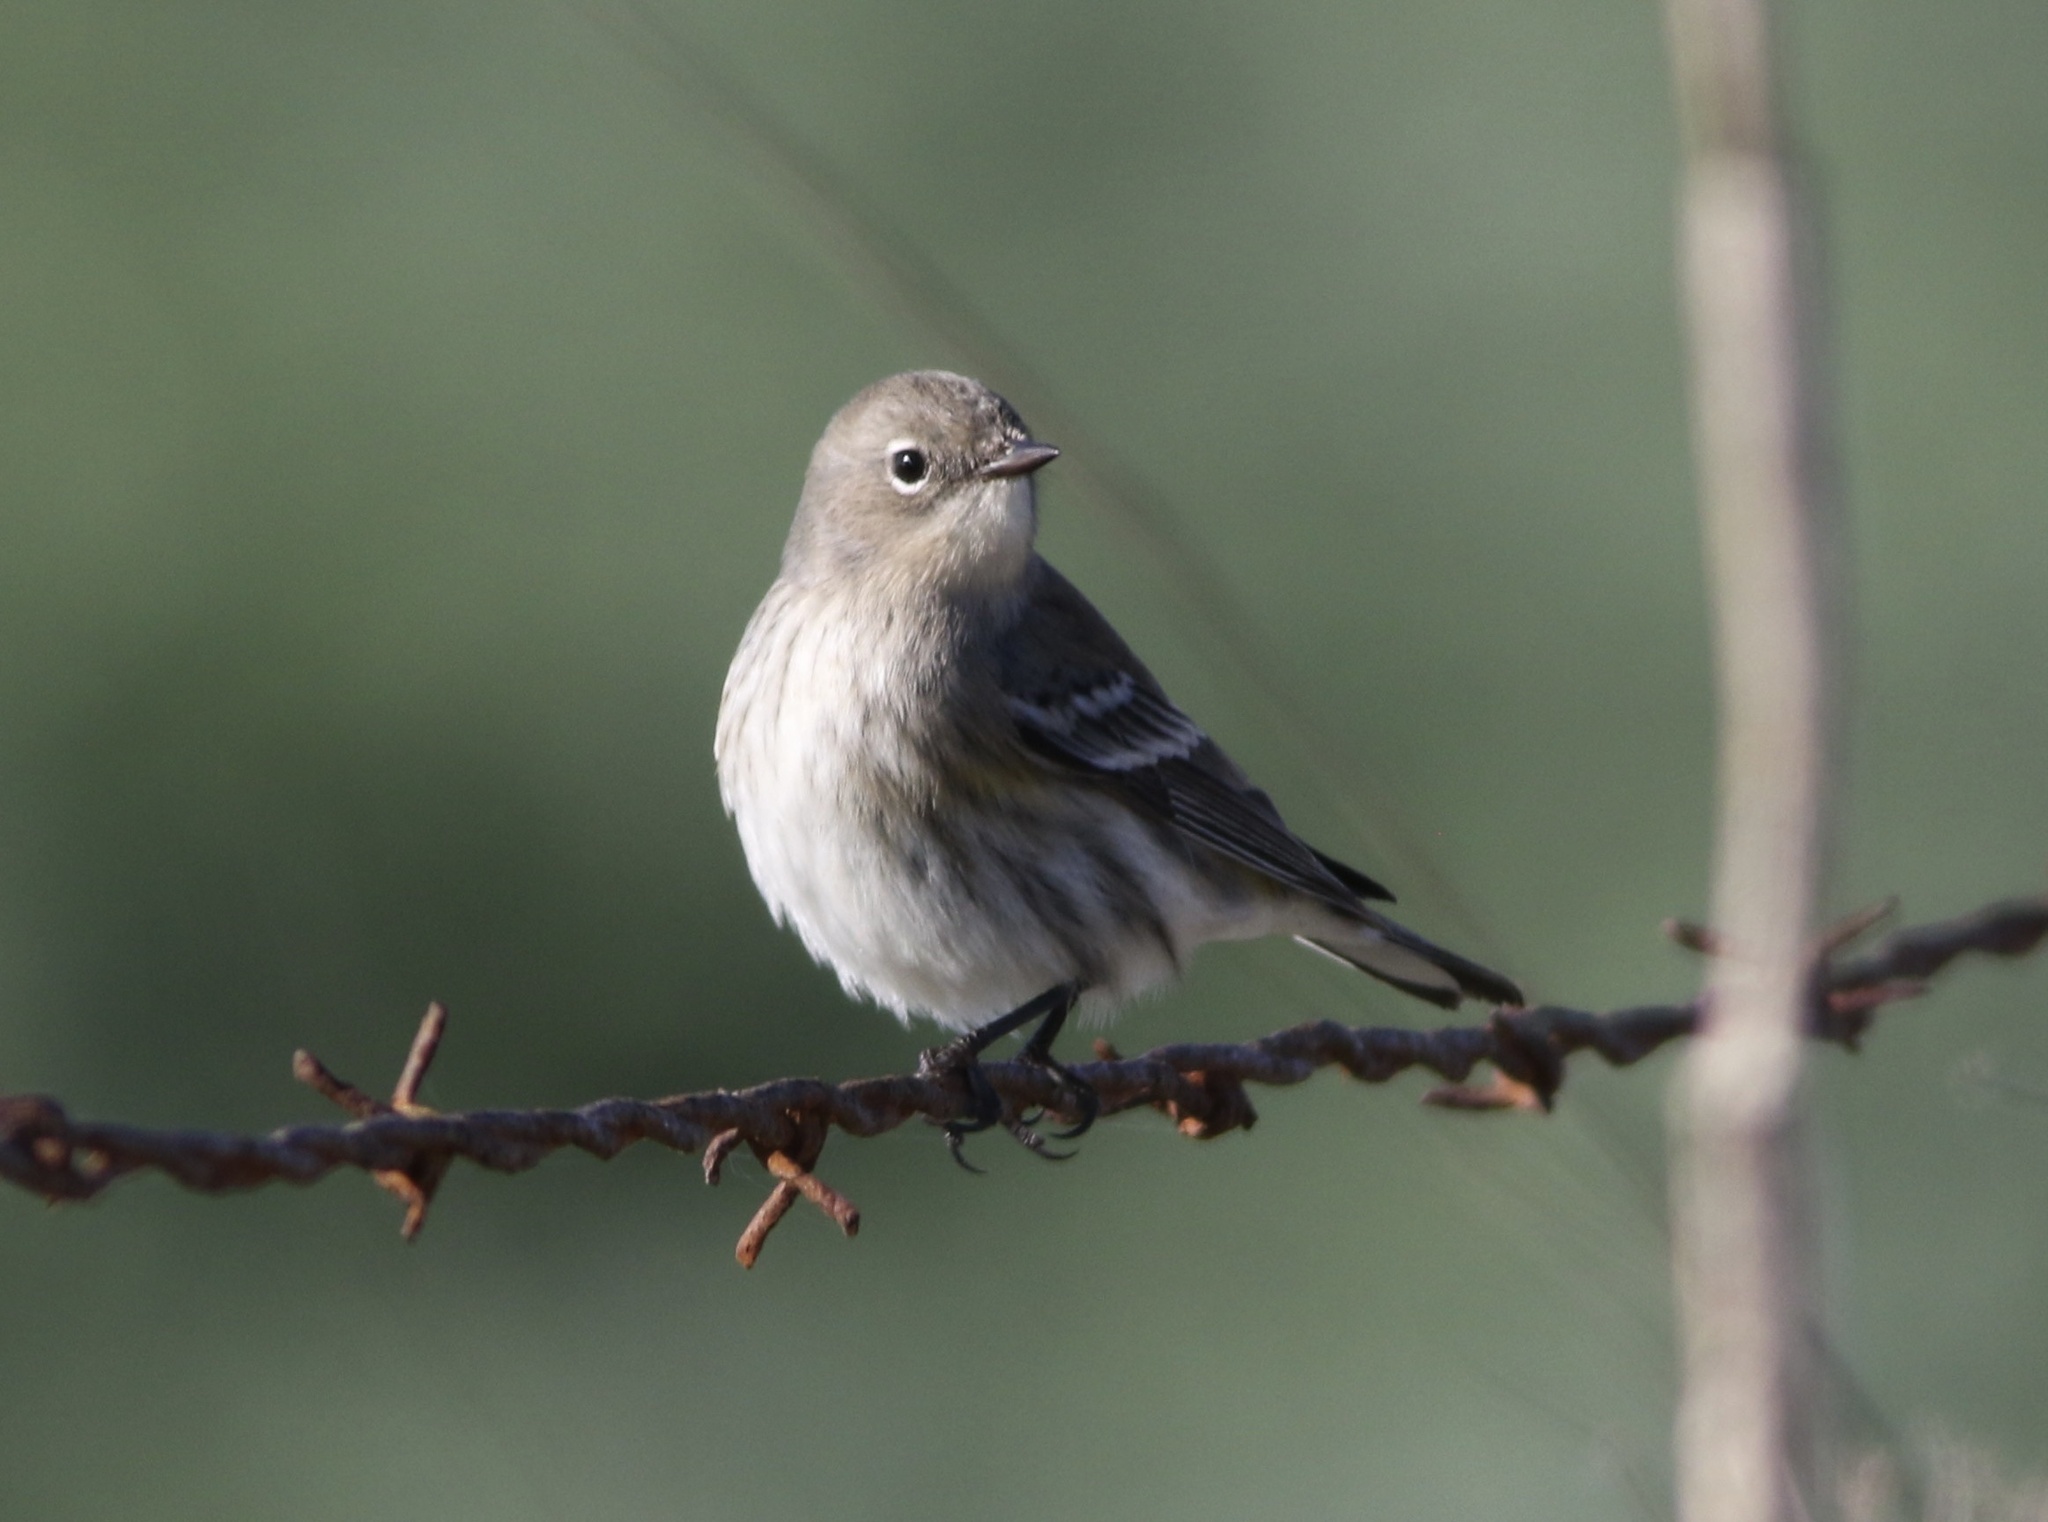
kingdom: Animalia
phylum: Chordata
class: Aves
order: Passeriformes
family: Parulidae
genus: Setophaga
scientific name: Setophaga coronata
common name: Myrtle warbler
